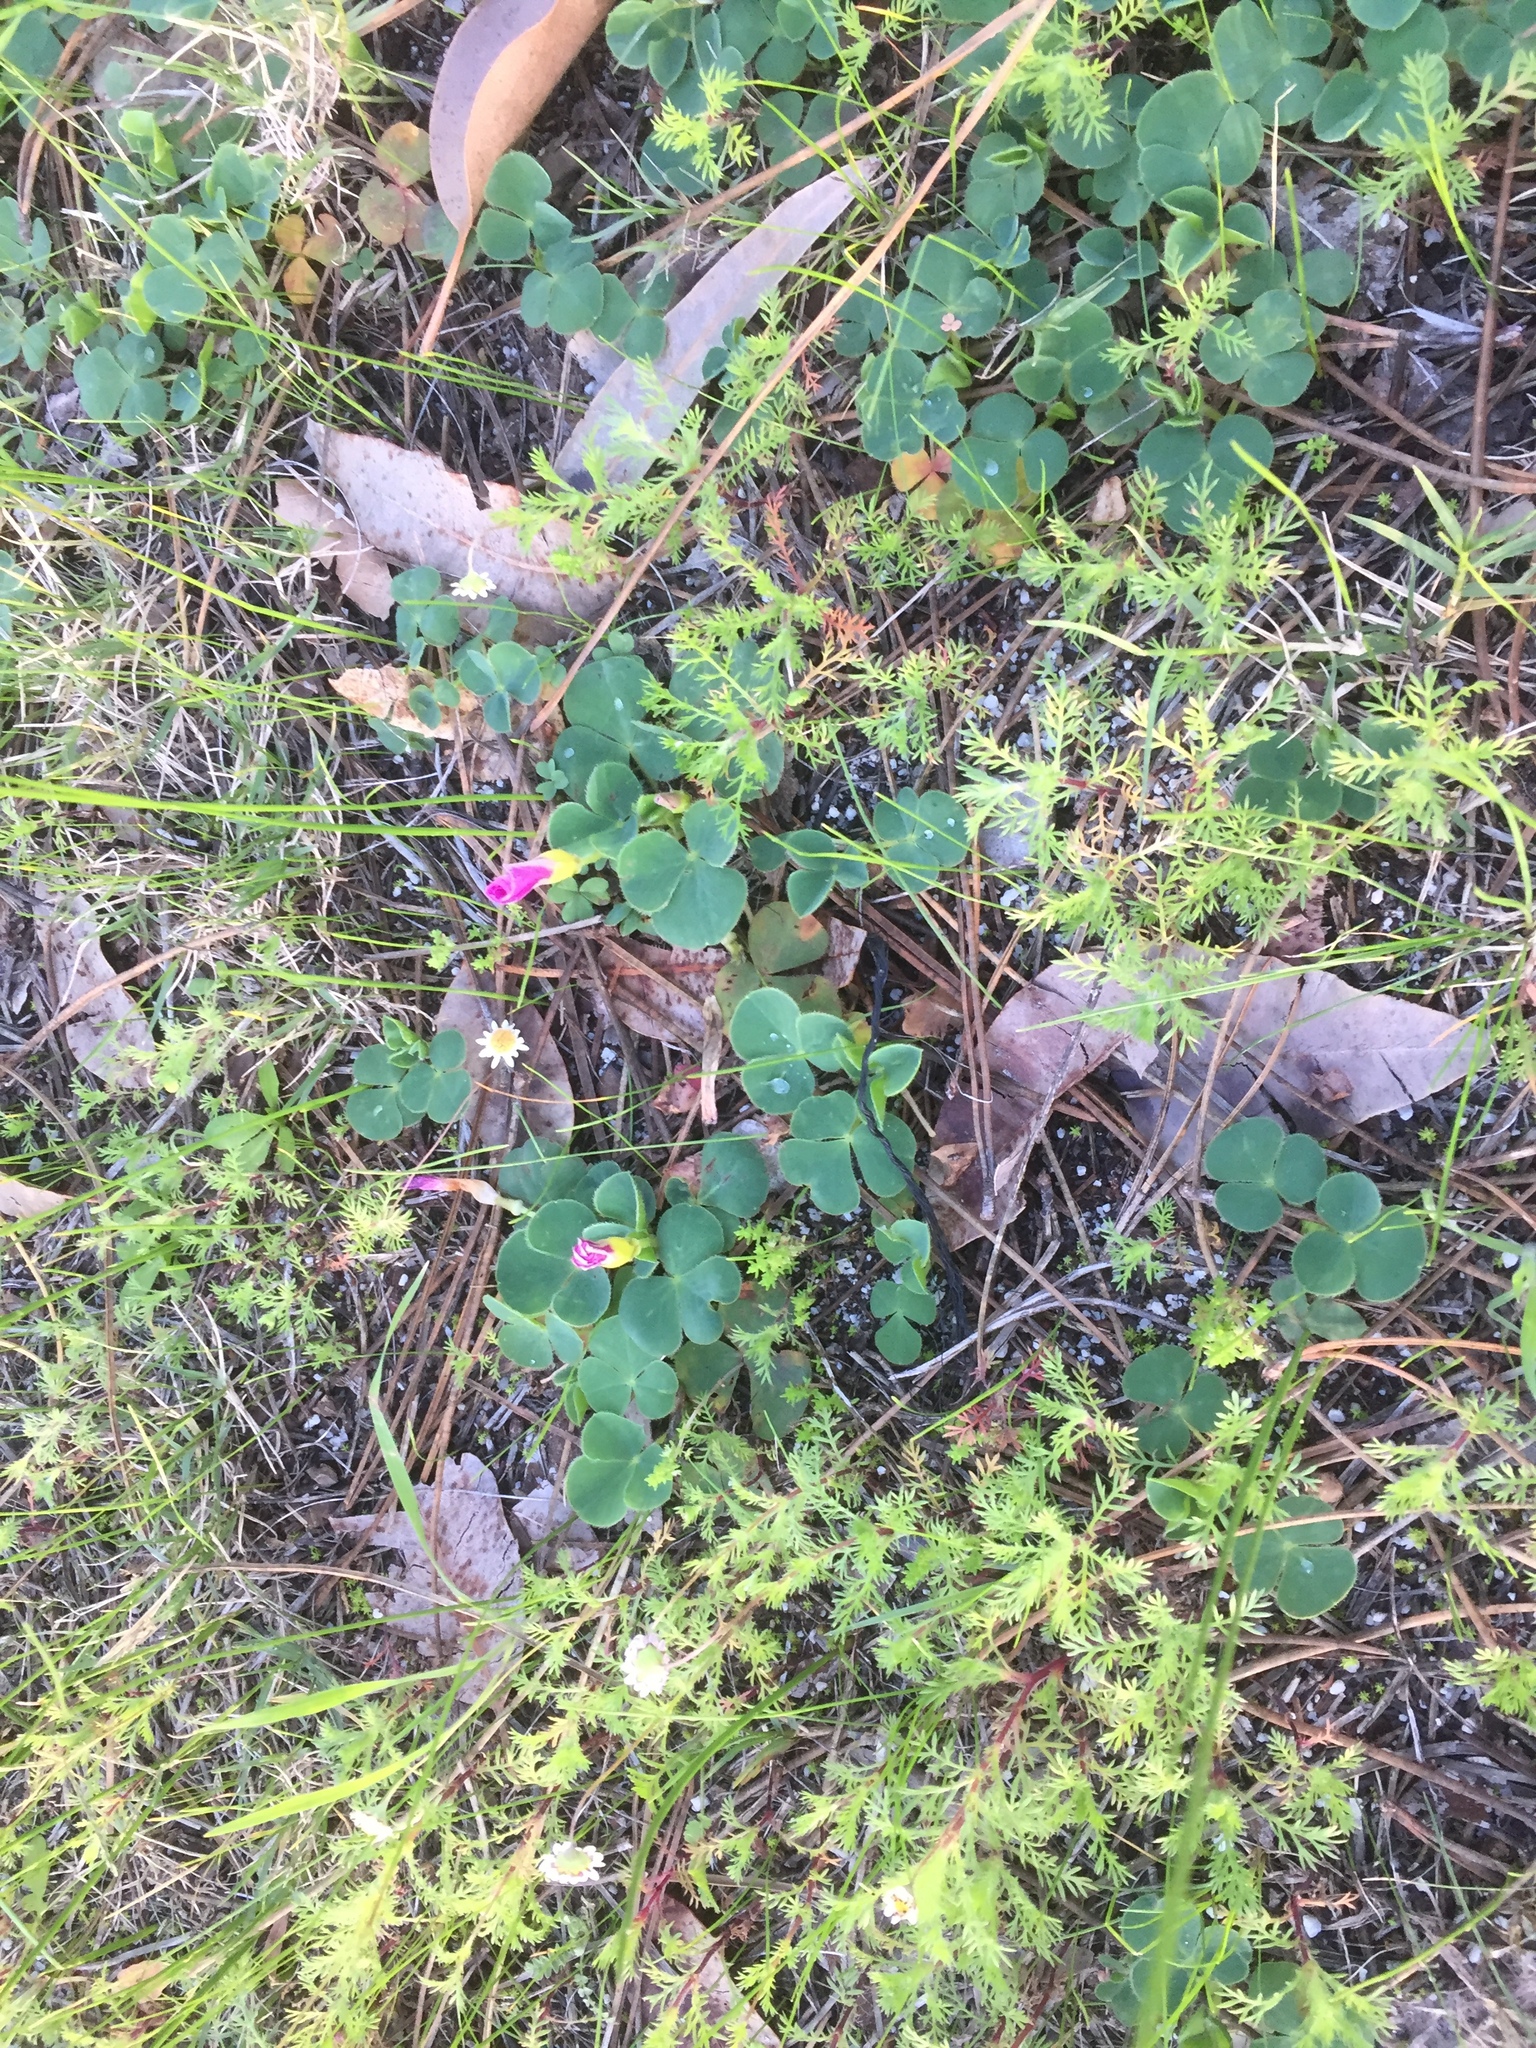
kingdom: Plantae
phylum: Tracheophyta
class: Magnoliopsida
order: Oxalidales
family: Oxalidaceae
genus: Oxalis
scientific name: Oxalis purpurea
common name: Purple woodsorrel
